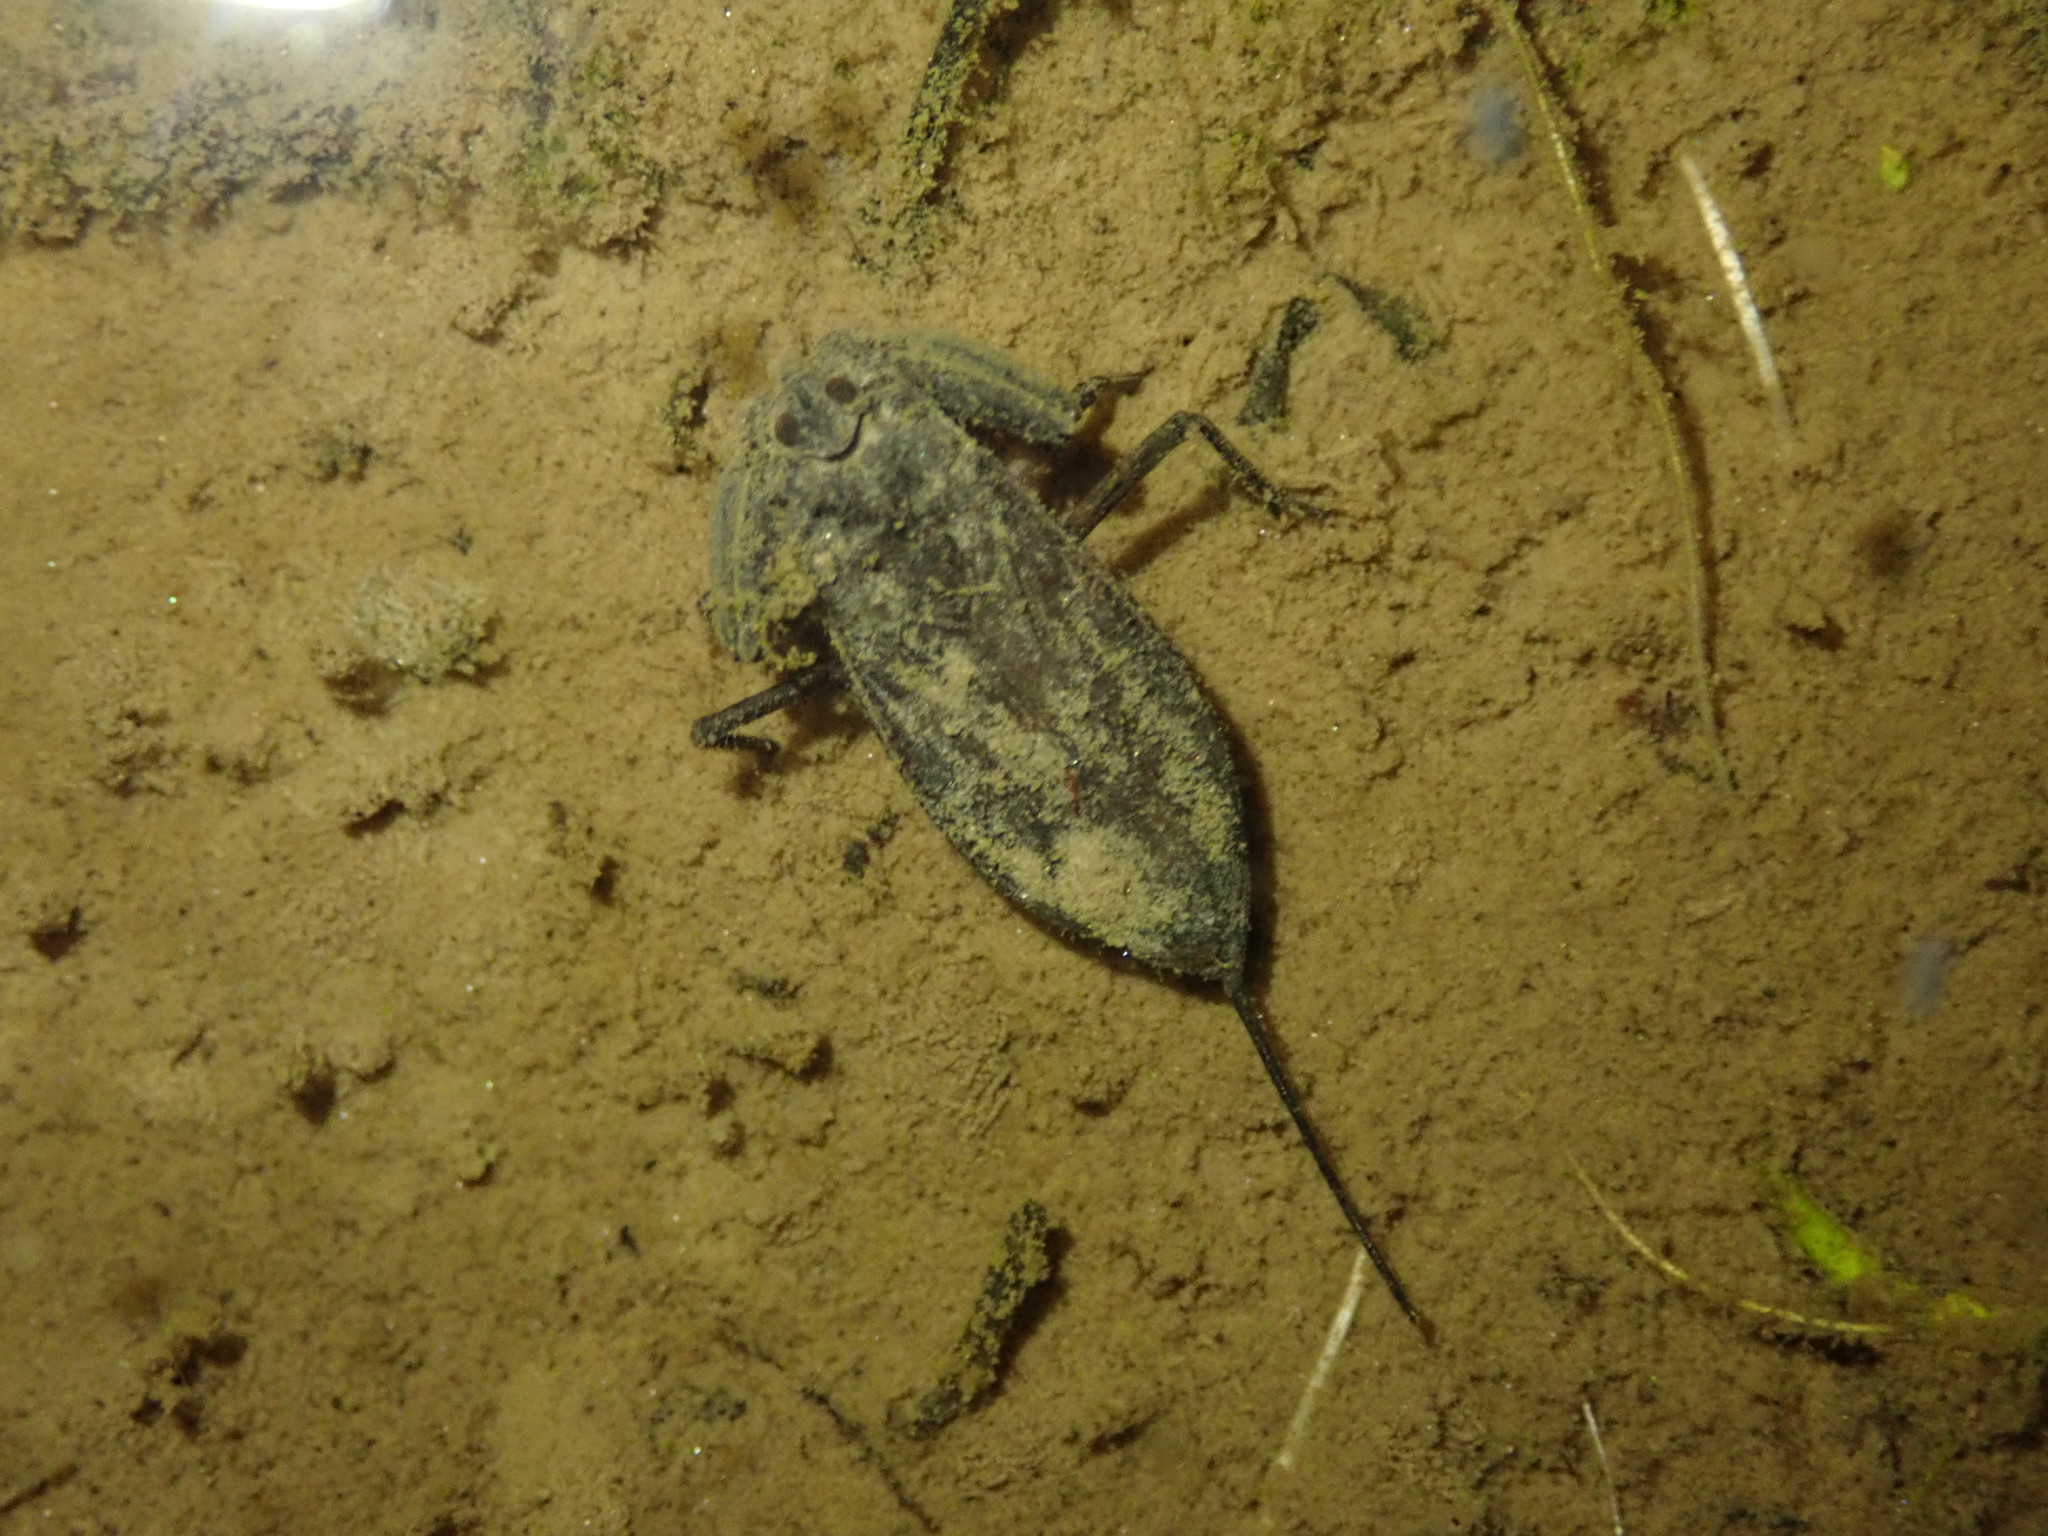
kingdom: Animalia
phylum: Arthropoda
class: Insecta
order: Hemiptera
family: Nepidae
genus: Nepa
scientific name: Nepa cinerea
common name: Water scorpion
